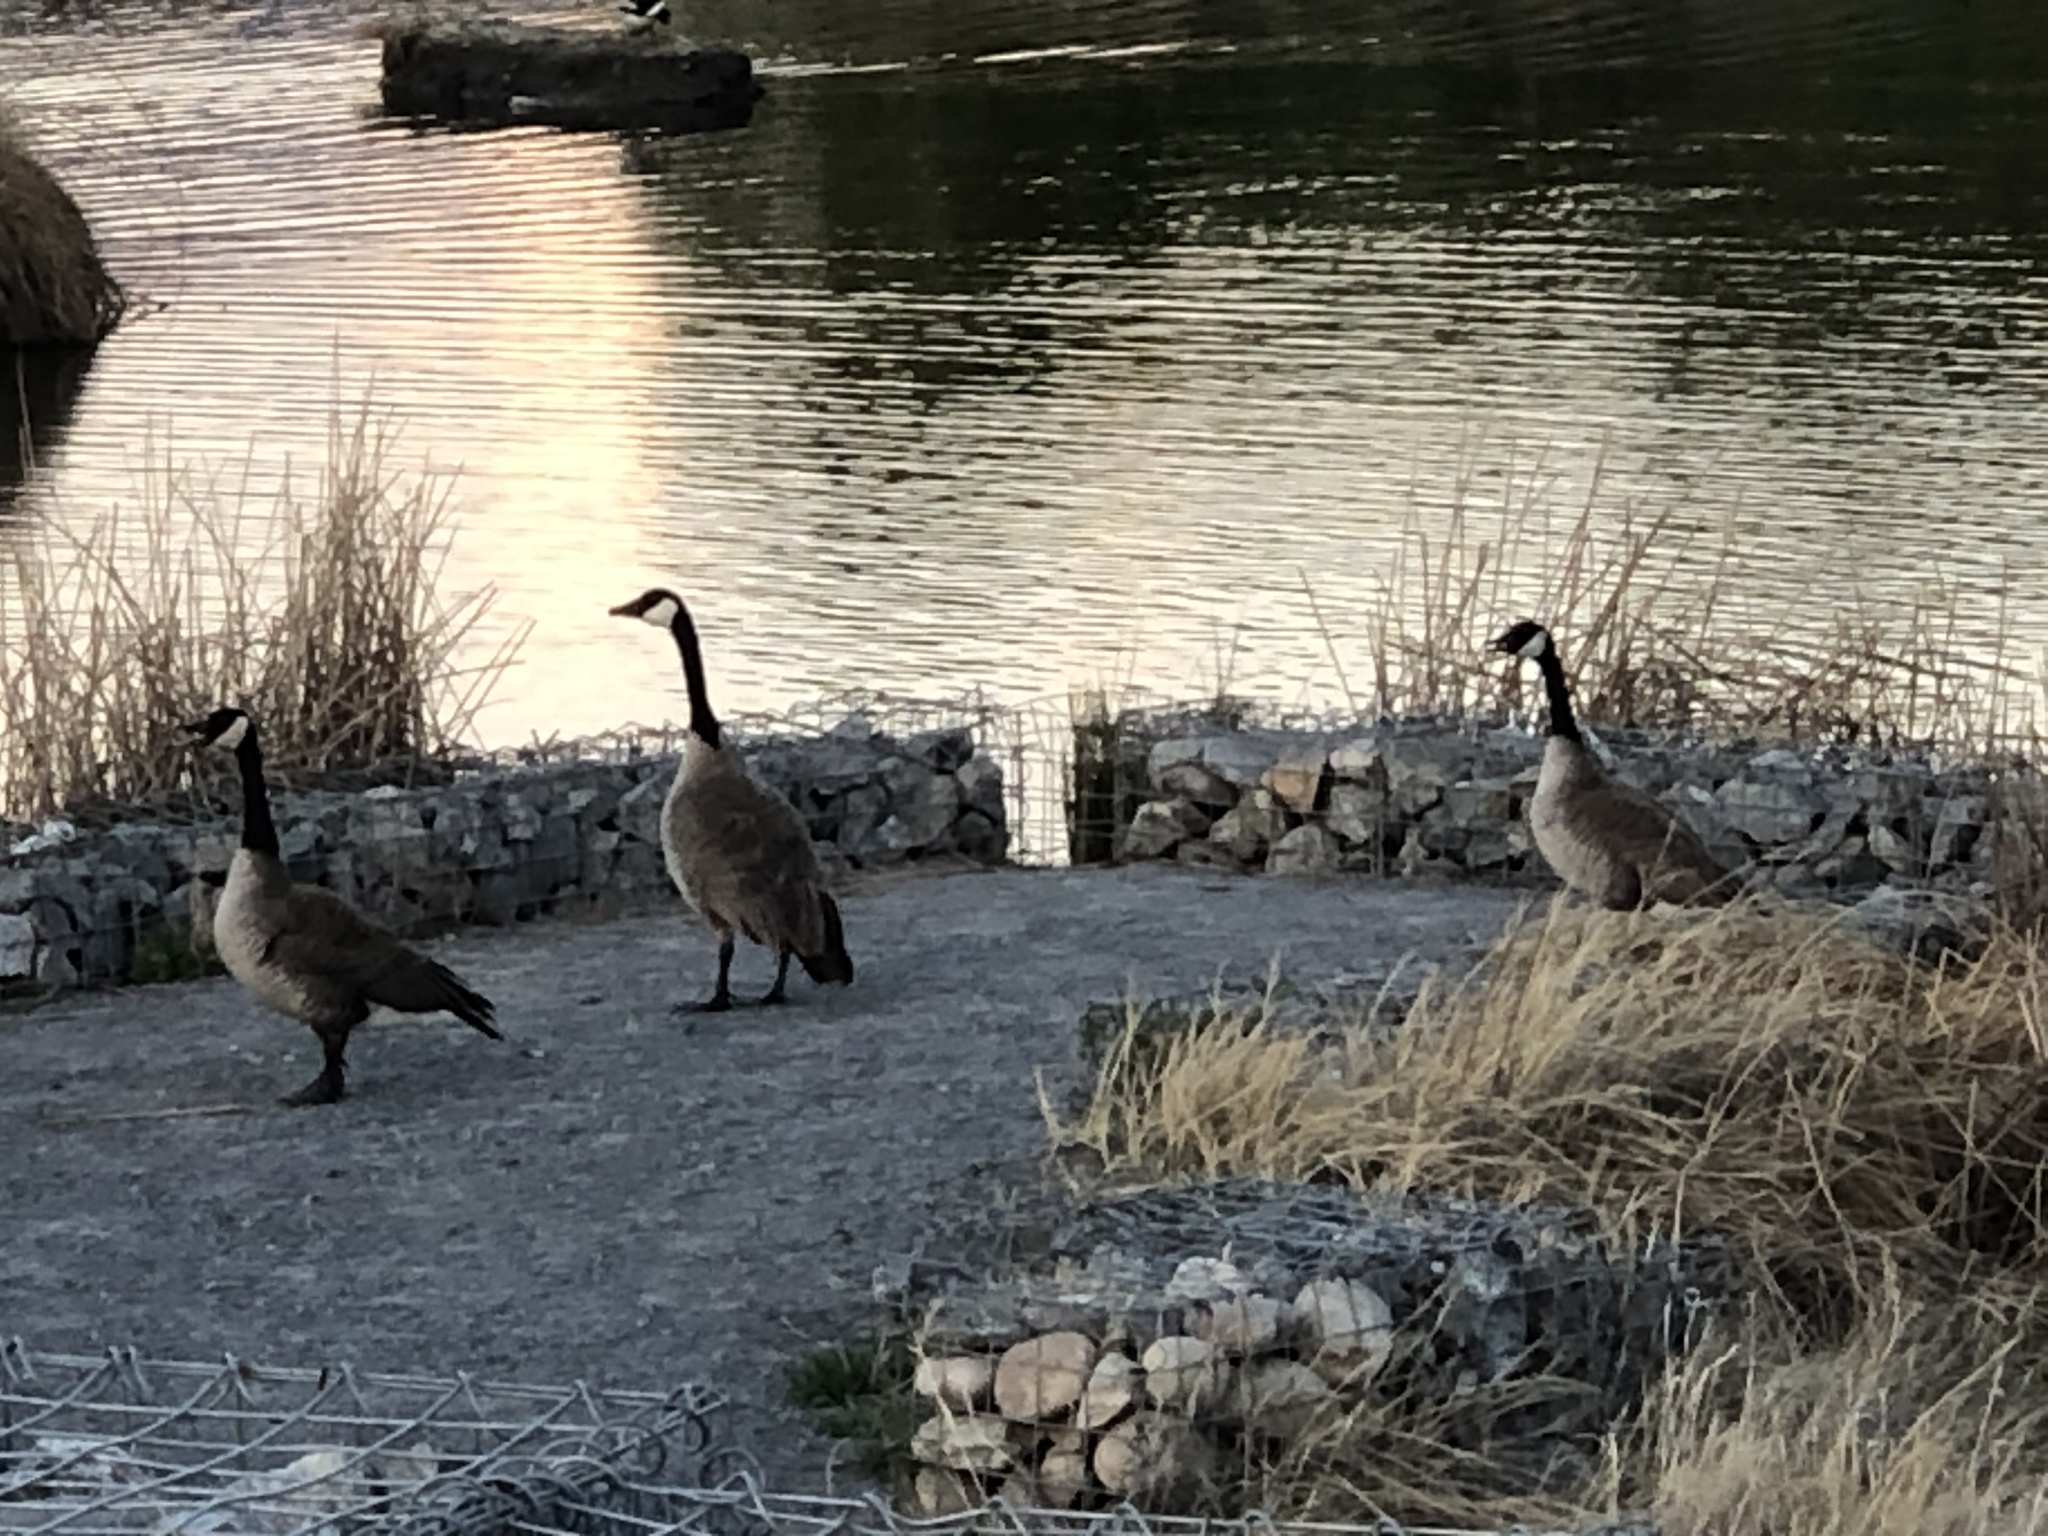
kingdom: Animalia
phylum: Chordata
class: Aves
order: Anseriformes
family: Anatidae
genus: Branta
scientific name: Branta canadensis
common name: Canada goose
